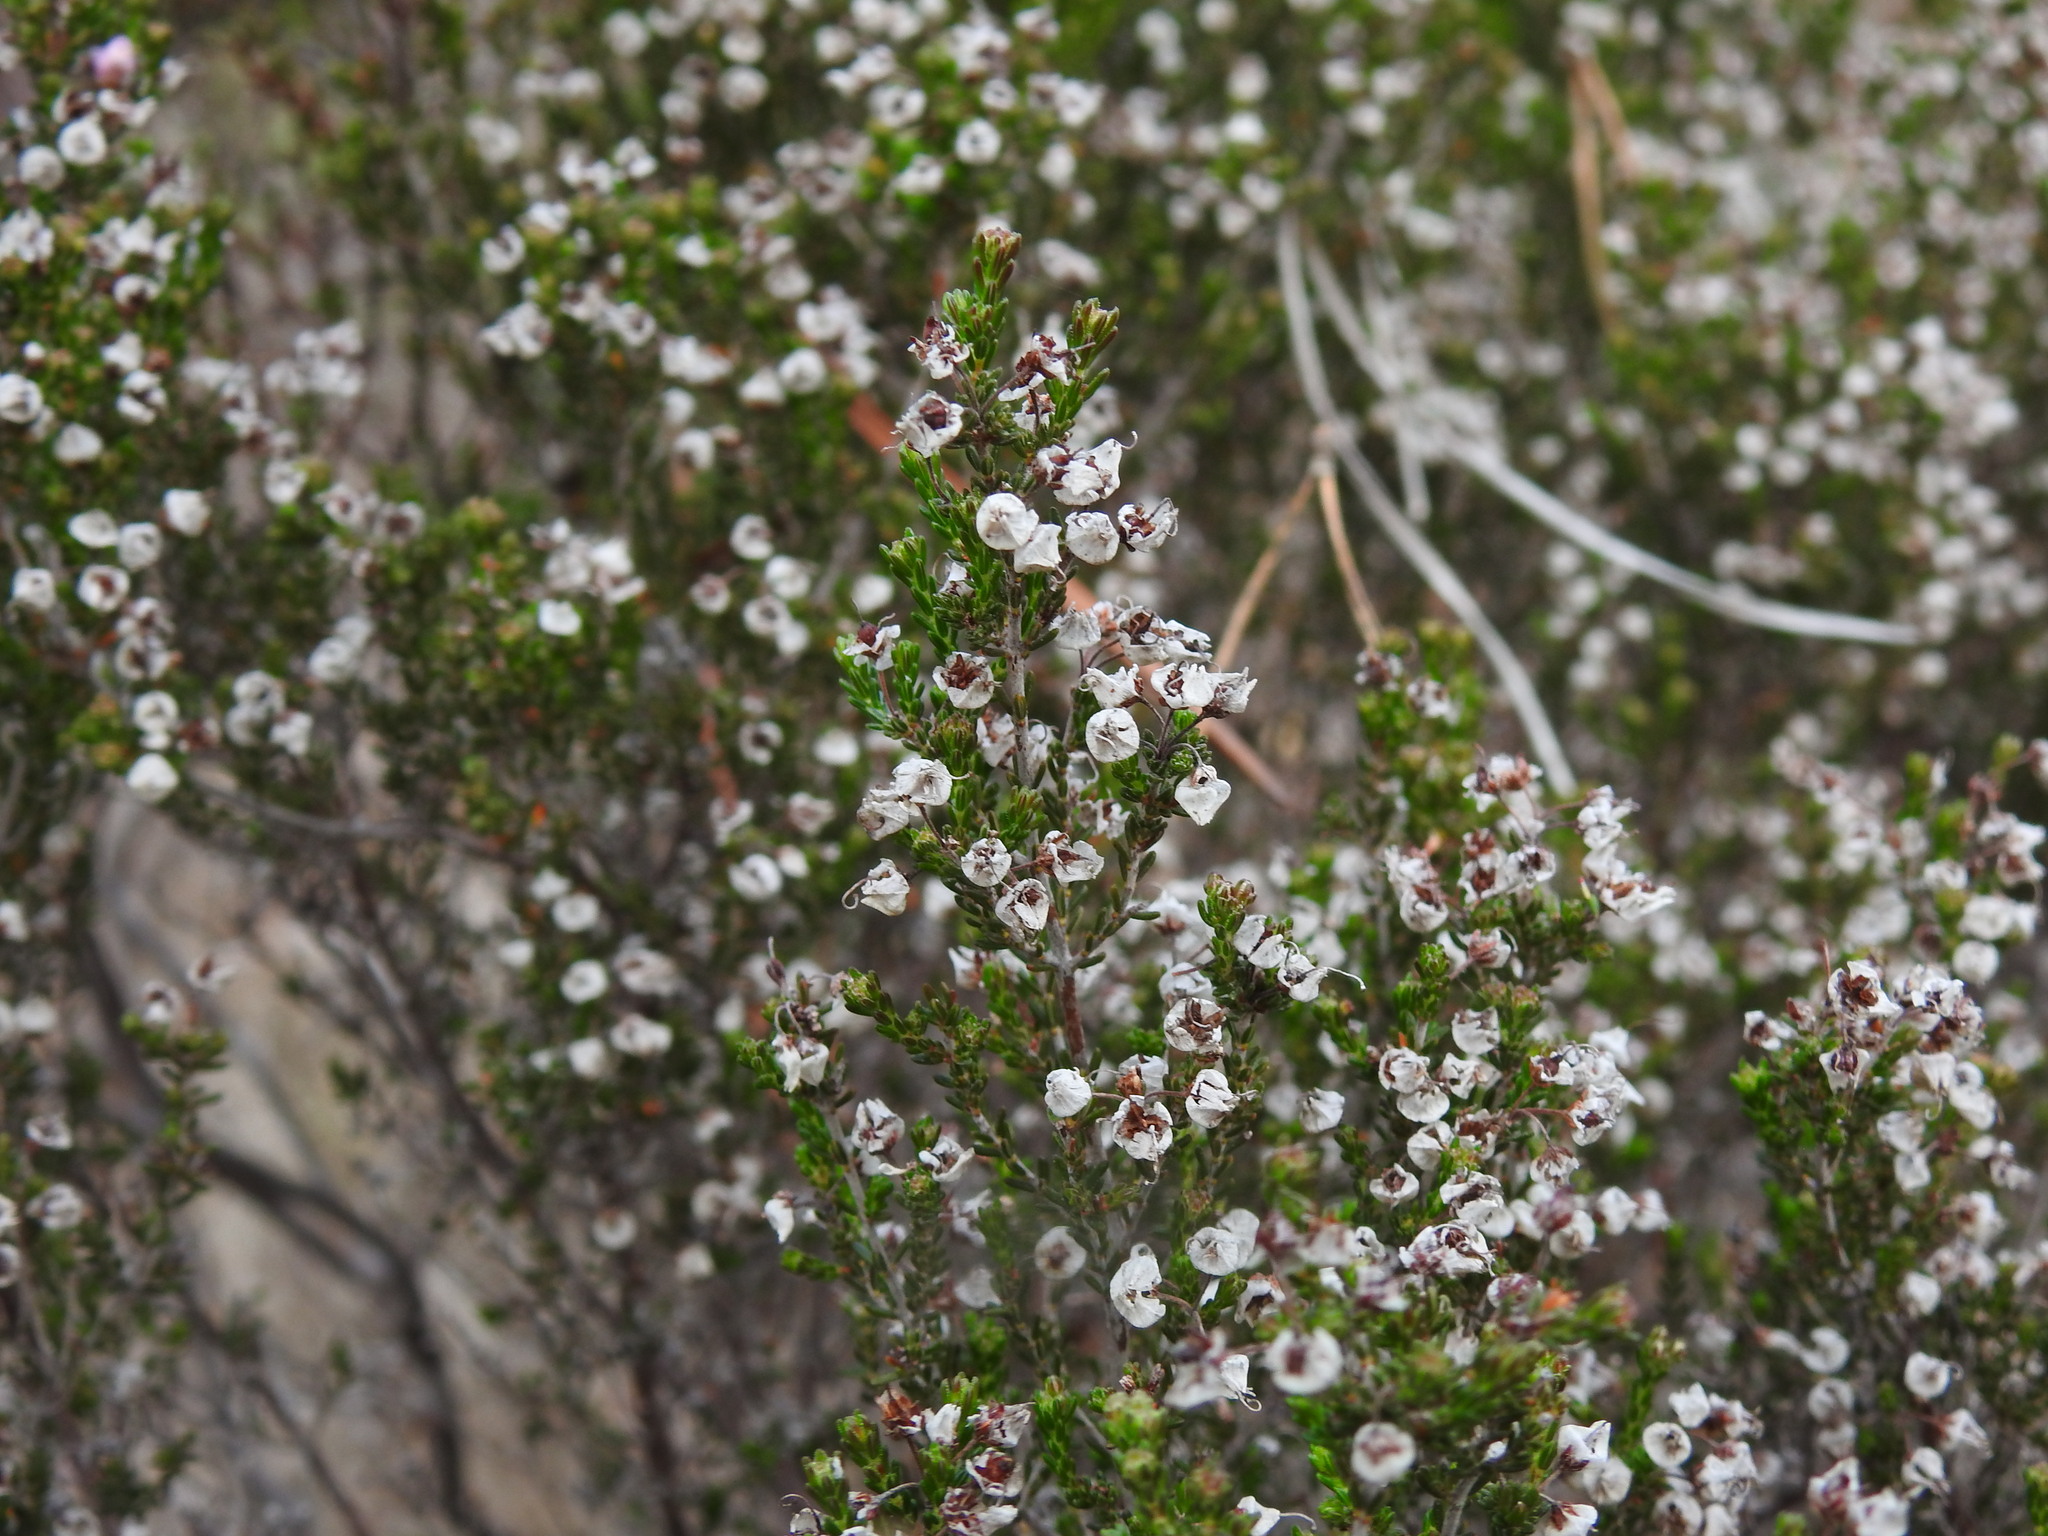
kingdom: Plantae
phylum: Tracheophyta
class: Magnoliopsida
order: Ericales
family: Ericaceae
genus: Erica
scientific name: Erica umbellata
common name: Dwarf spanish heath
